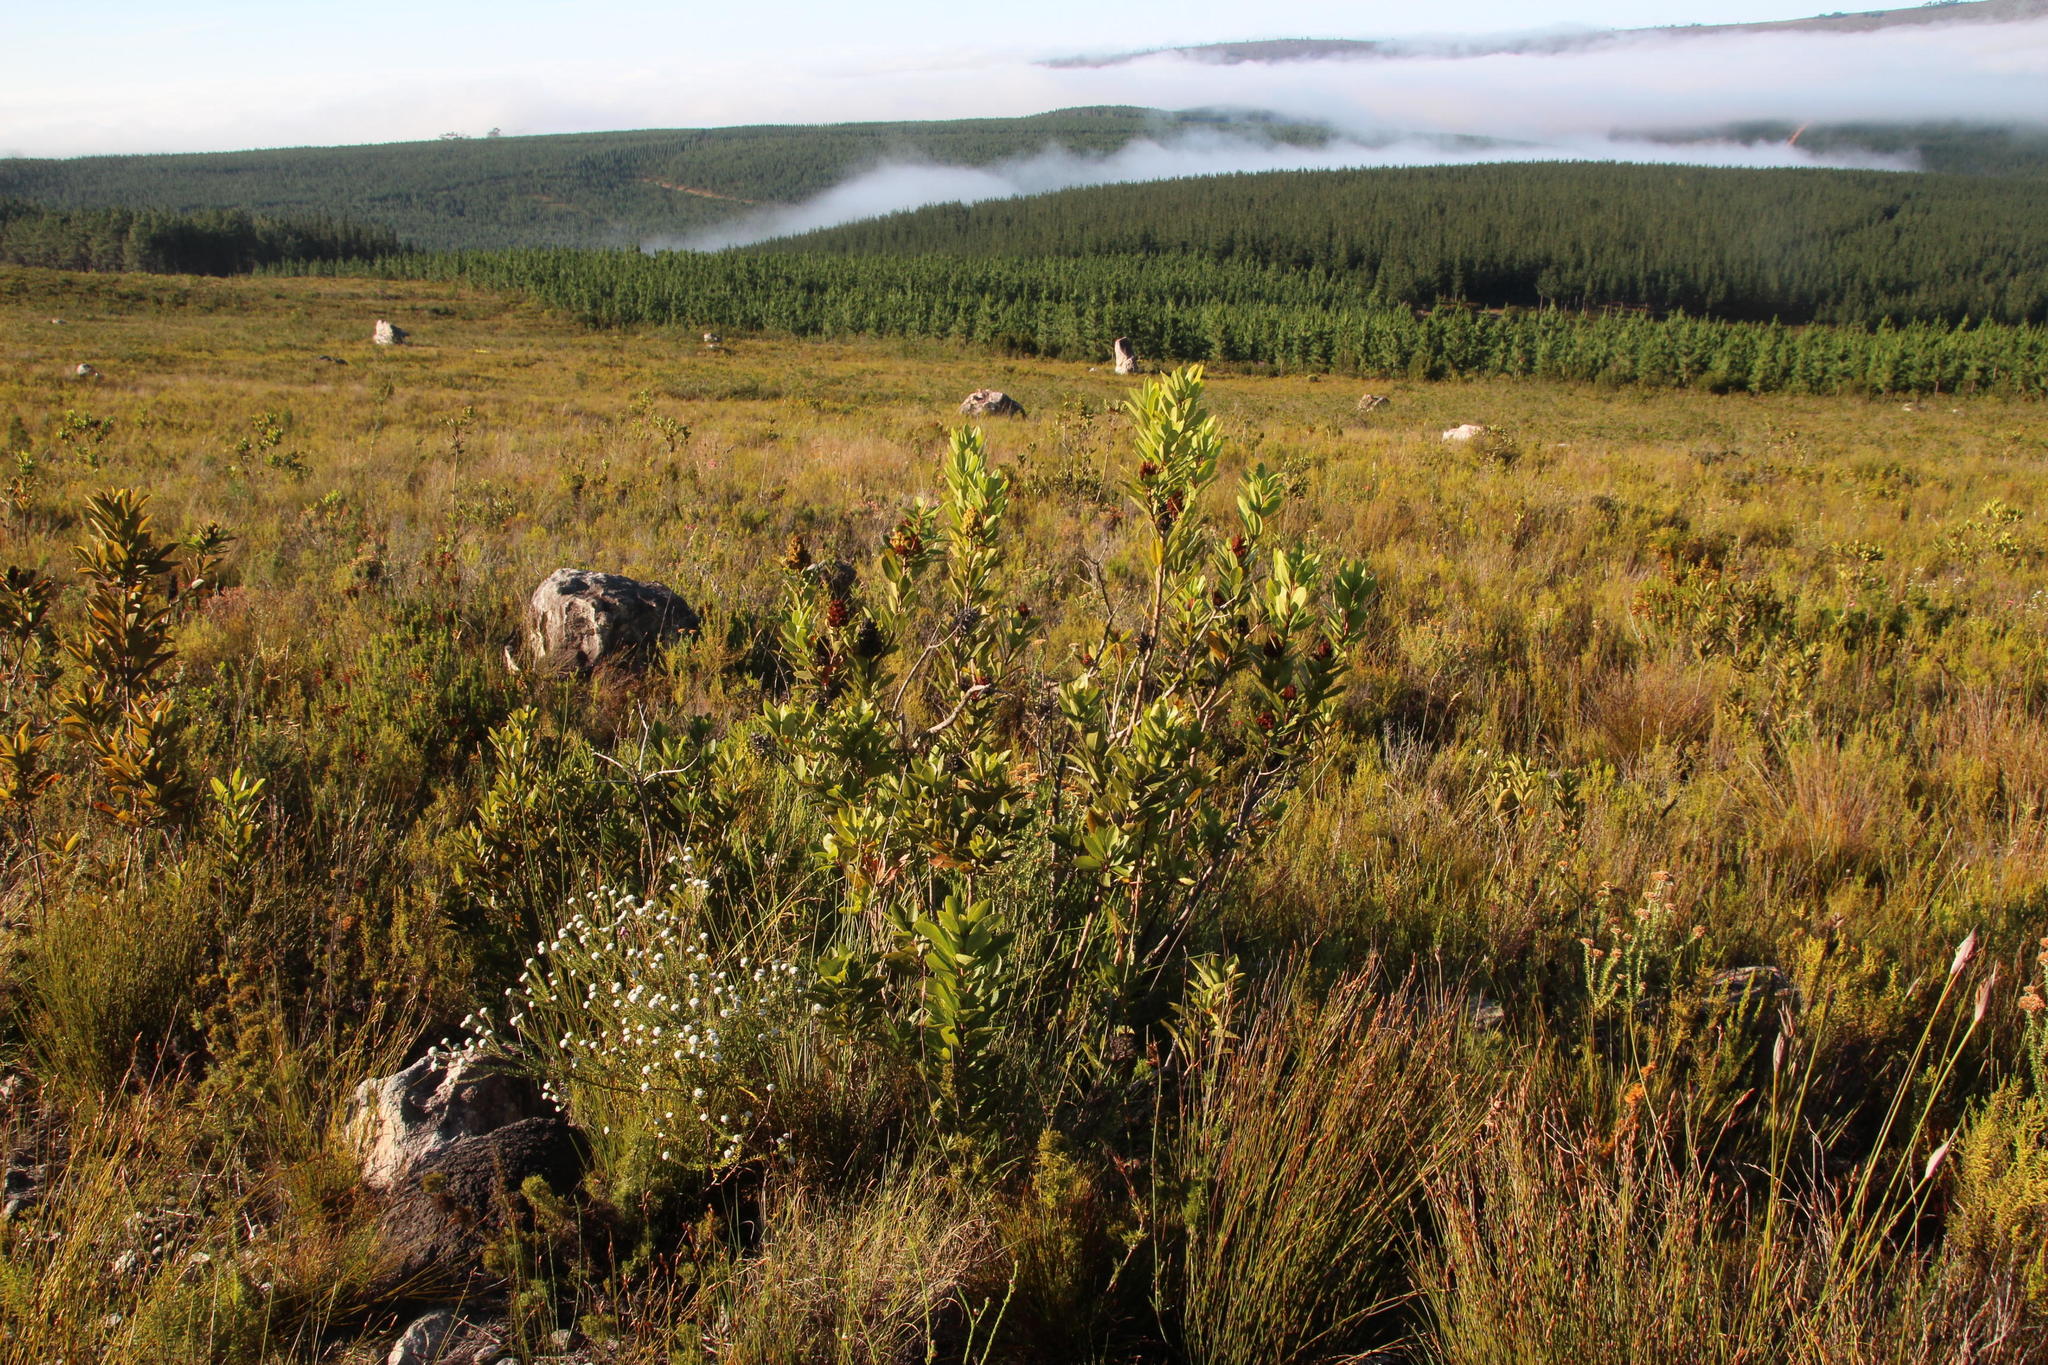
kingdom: Plantae
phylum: Tracheophyta
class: Magnoliopsida
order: Sapindales
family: Anacardiaceae
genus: Laurophyllus
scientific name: Laurophyllus capensis
